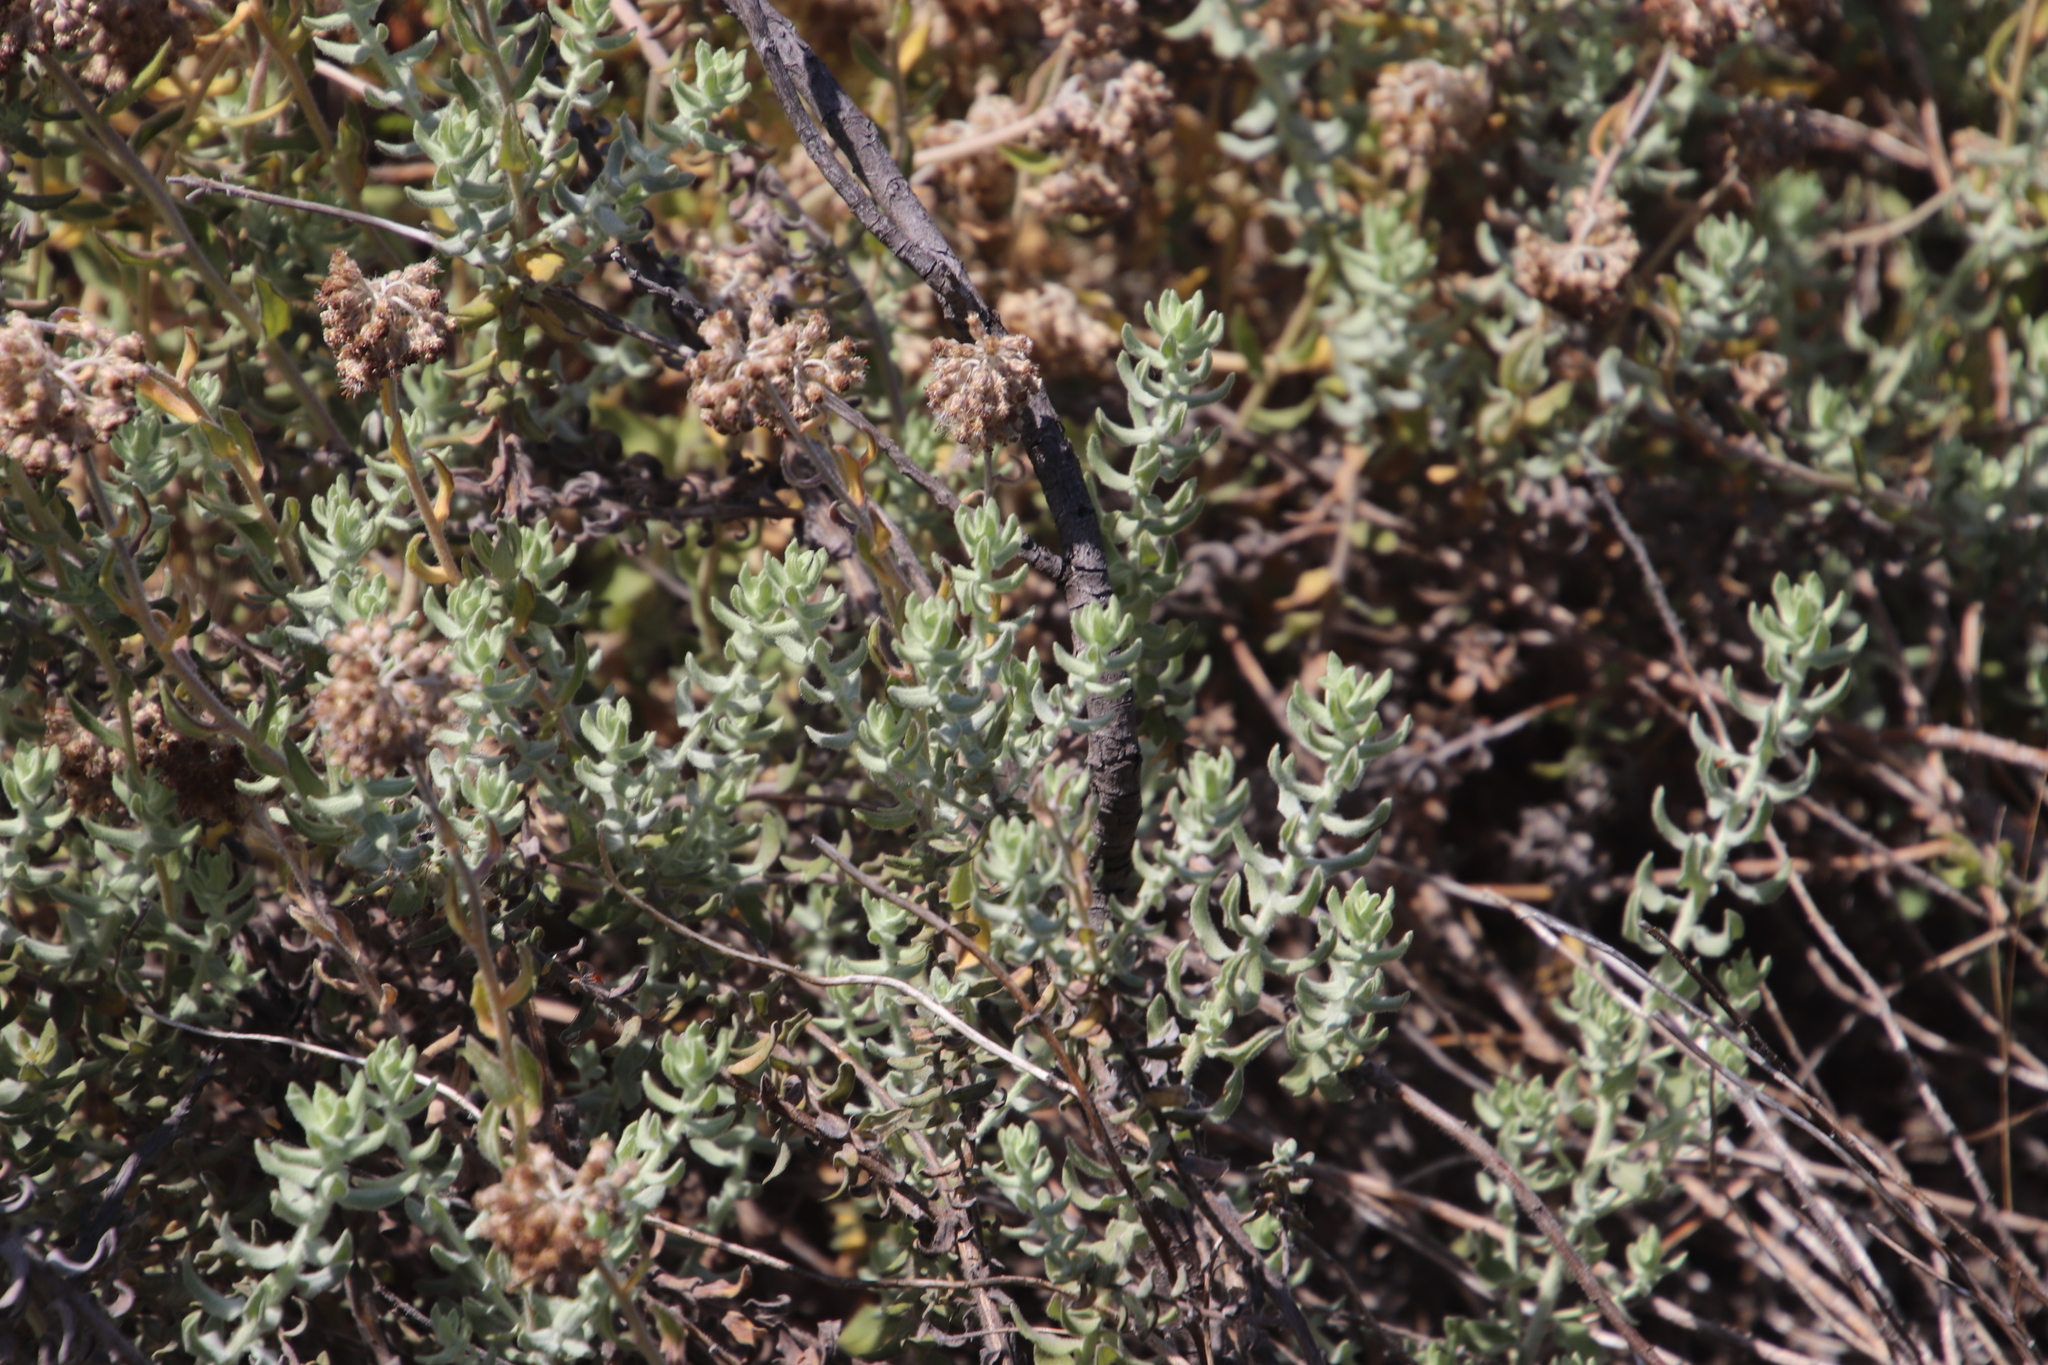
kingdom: Plantae
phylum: Tracheophyta
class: Magnoliopsida
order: Asterales
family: Asteraceae
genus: Helichrysum
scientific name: Helichrysum dasyanthum
